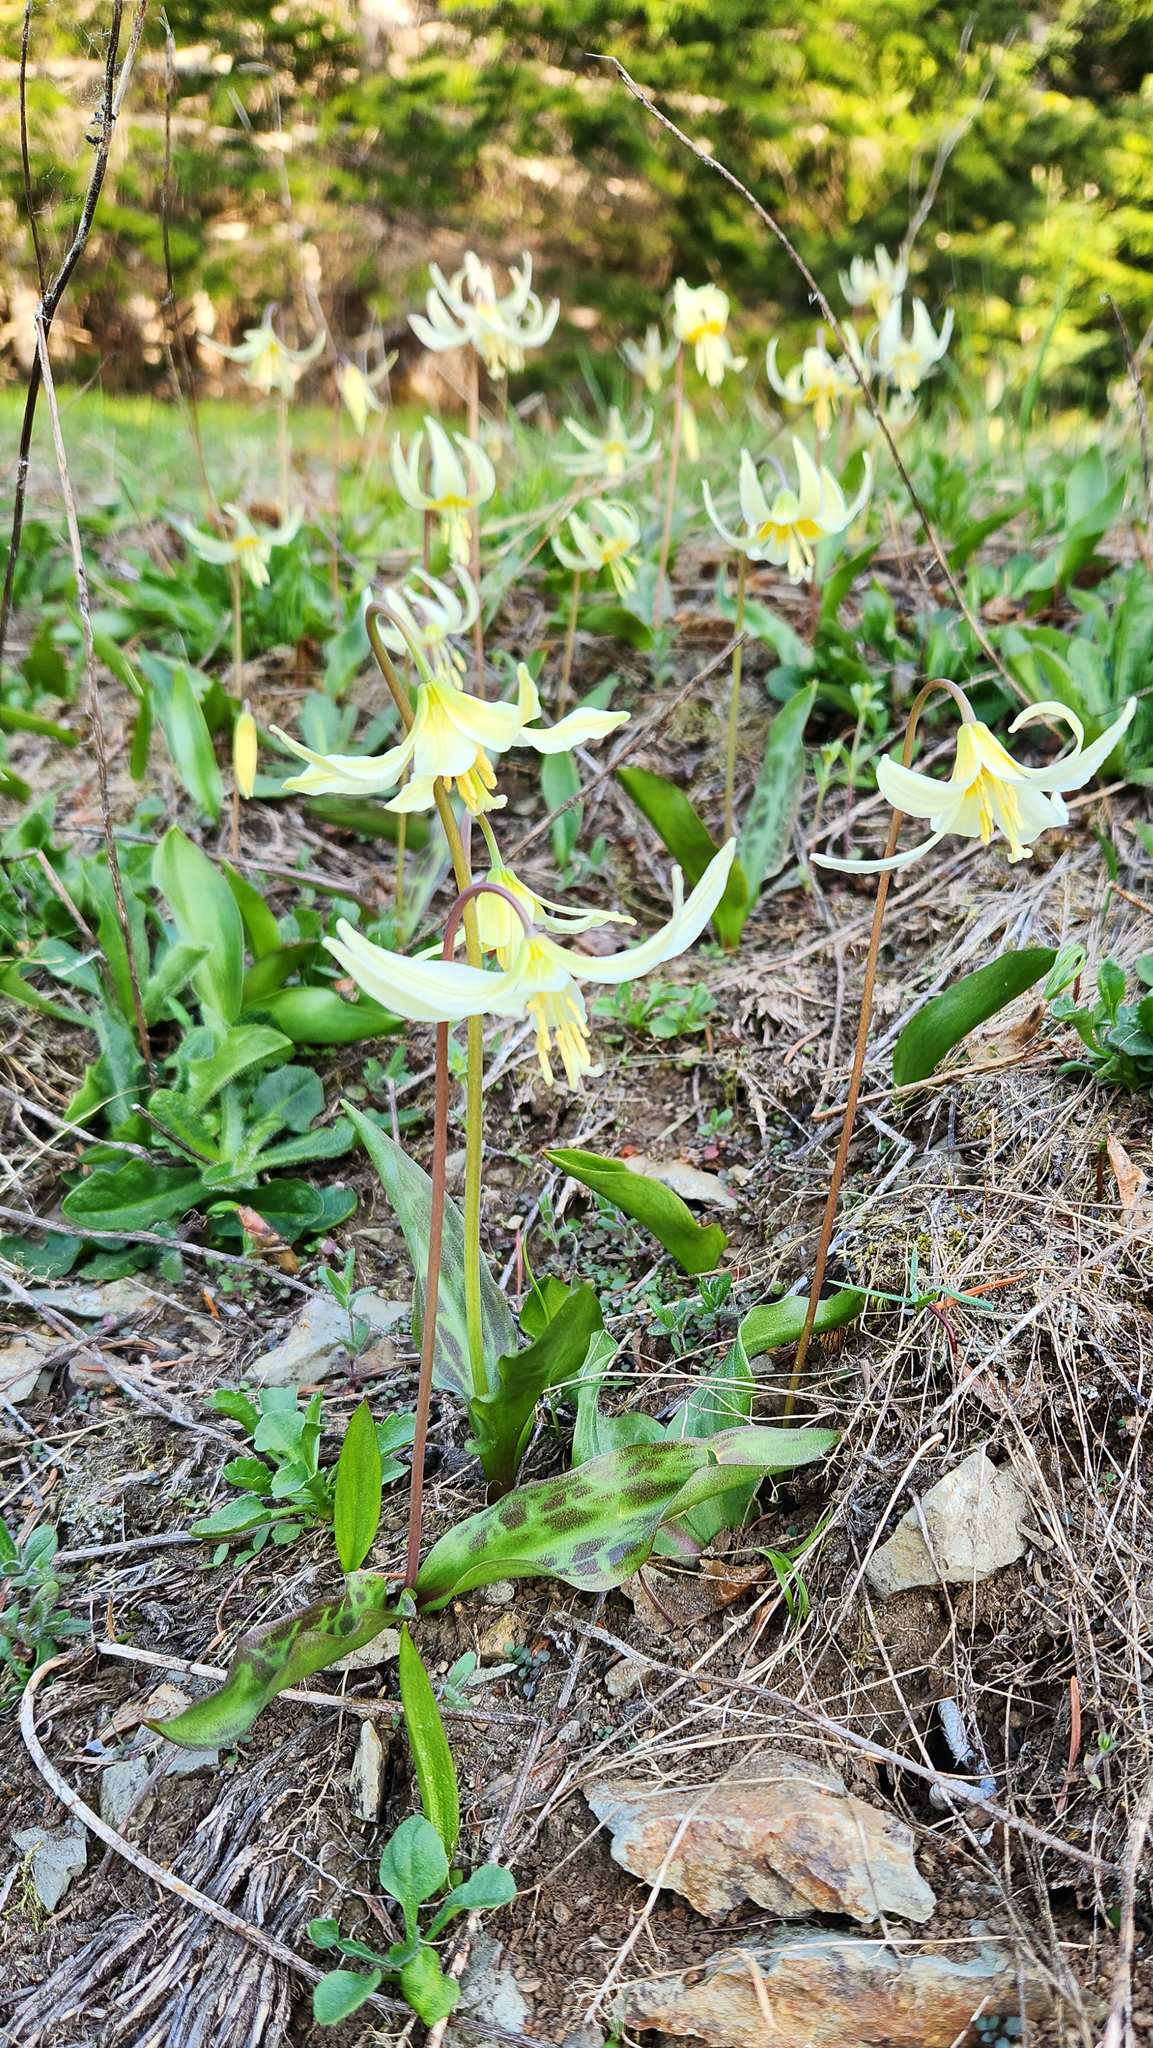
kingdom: Plantae
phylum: Tracheophyta
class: Liliopsida
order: Liliales
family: Liliaceae
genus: Erythronium
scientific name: Erythronium oregonum
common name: Giant adder's-tongue
